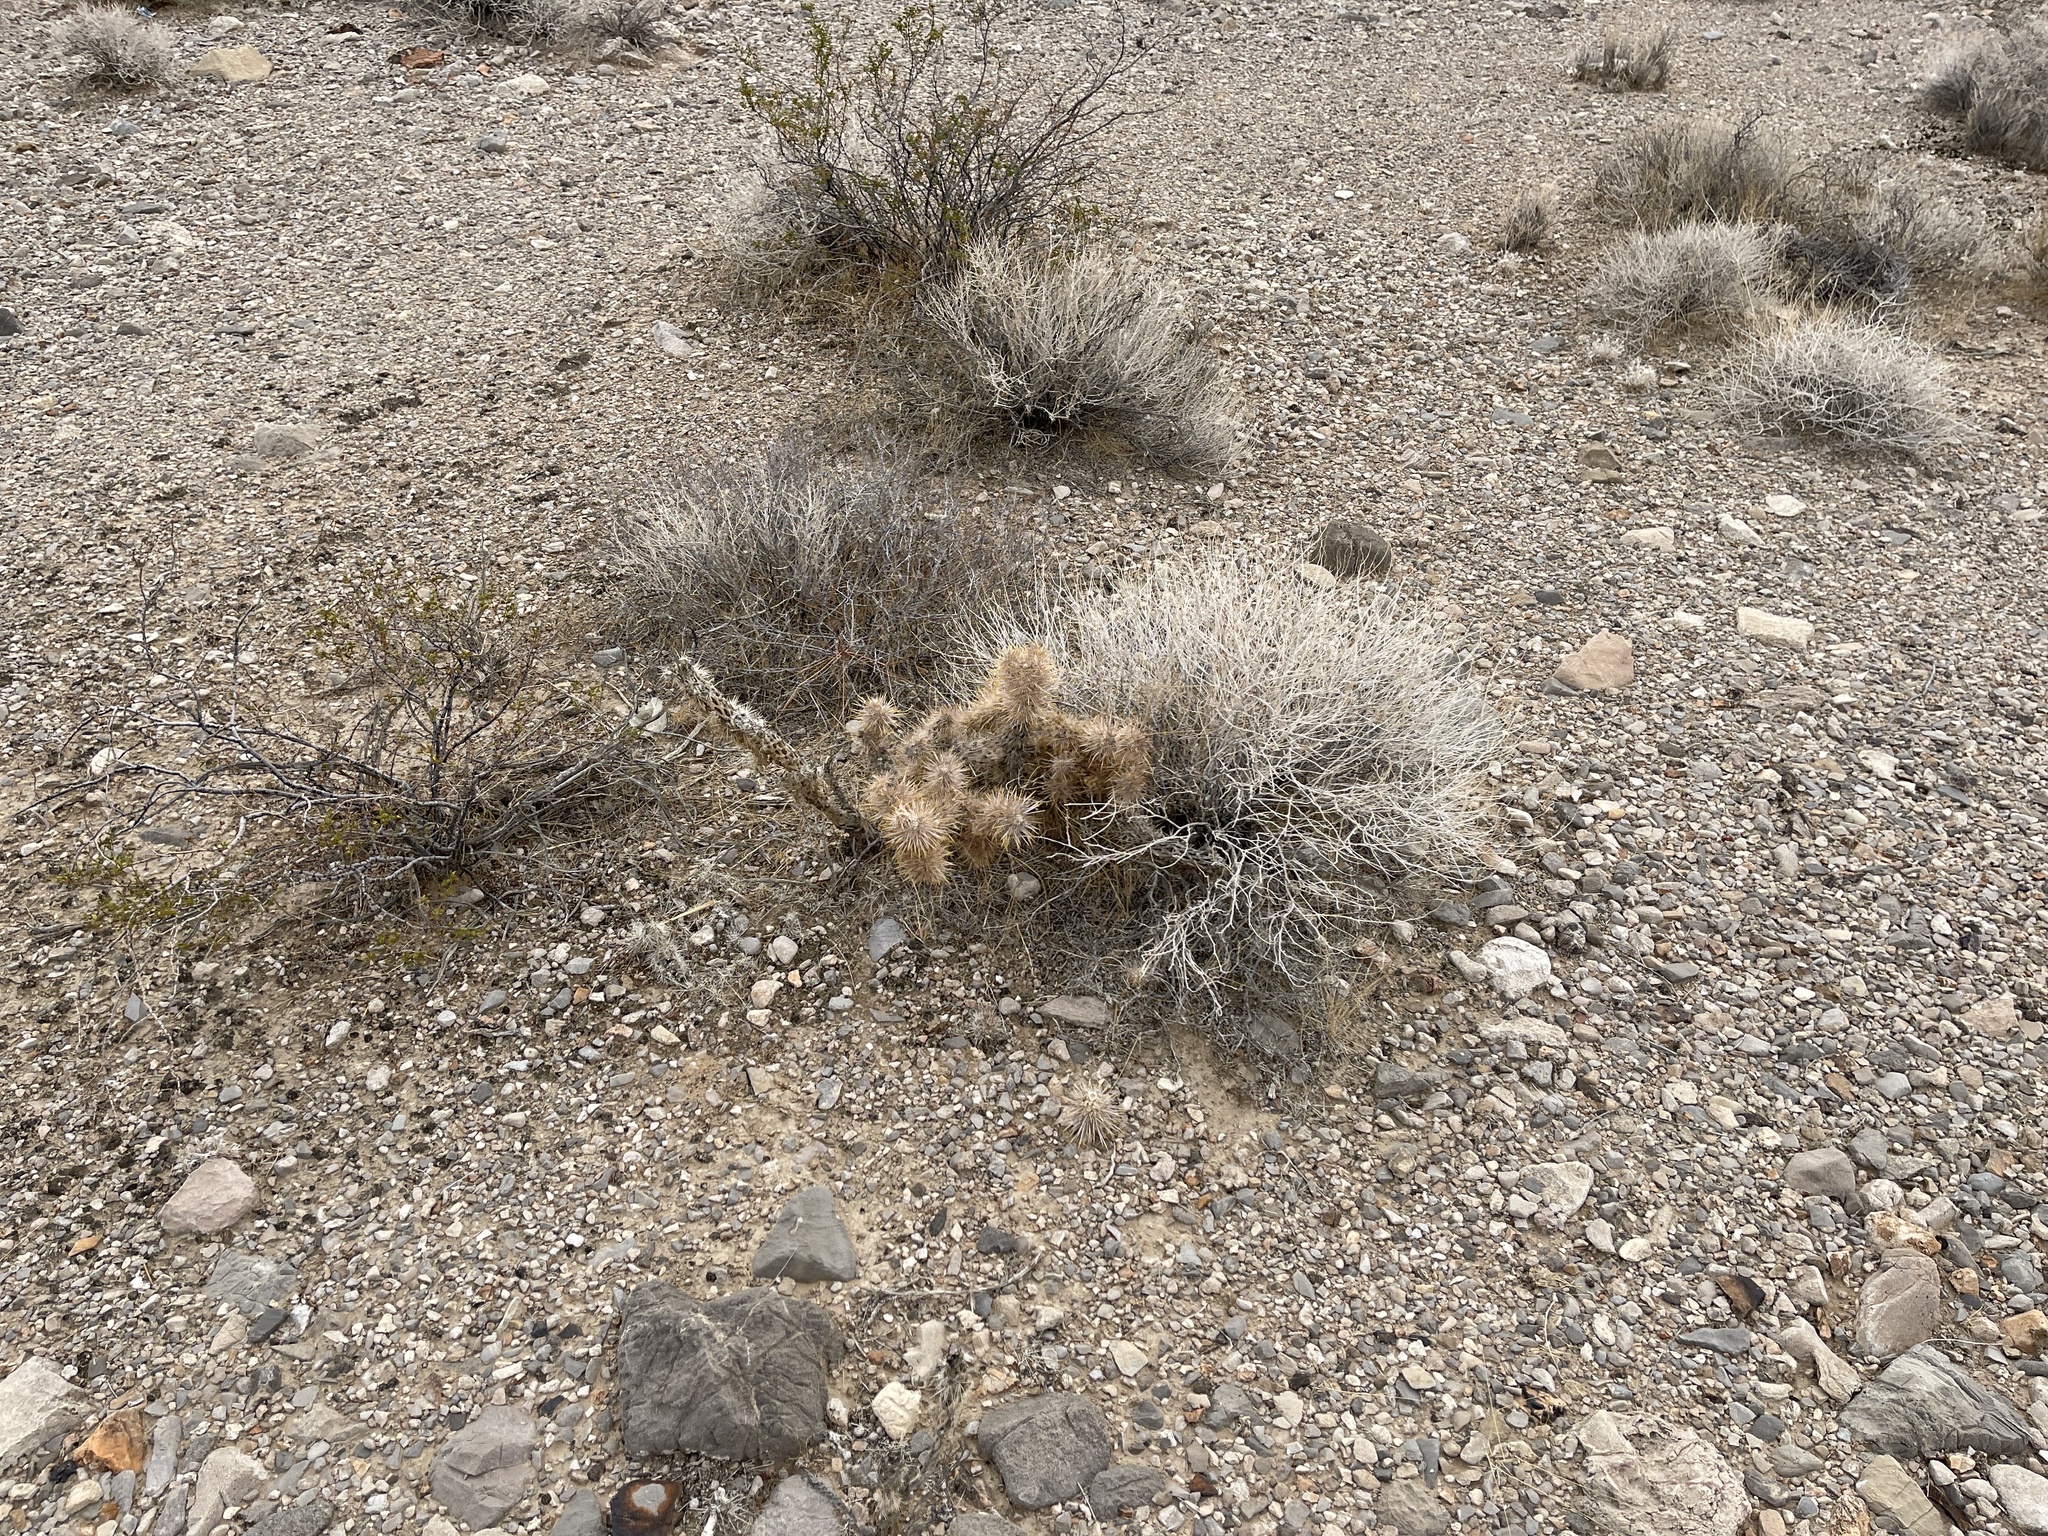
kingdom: Plantae
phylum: Tracheophyta
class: Magnoliopsida
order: Caryophyllales
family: Cactaceae
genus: Cylindropuntia
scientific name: Cylindropuntia echinocarpa
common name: Ground cholla
